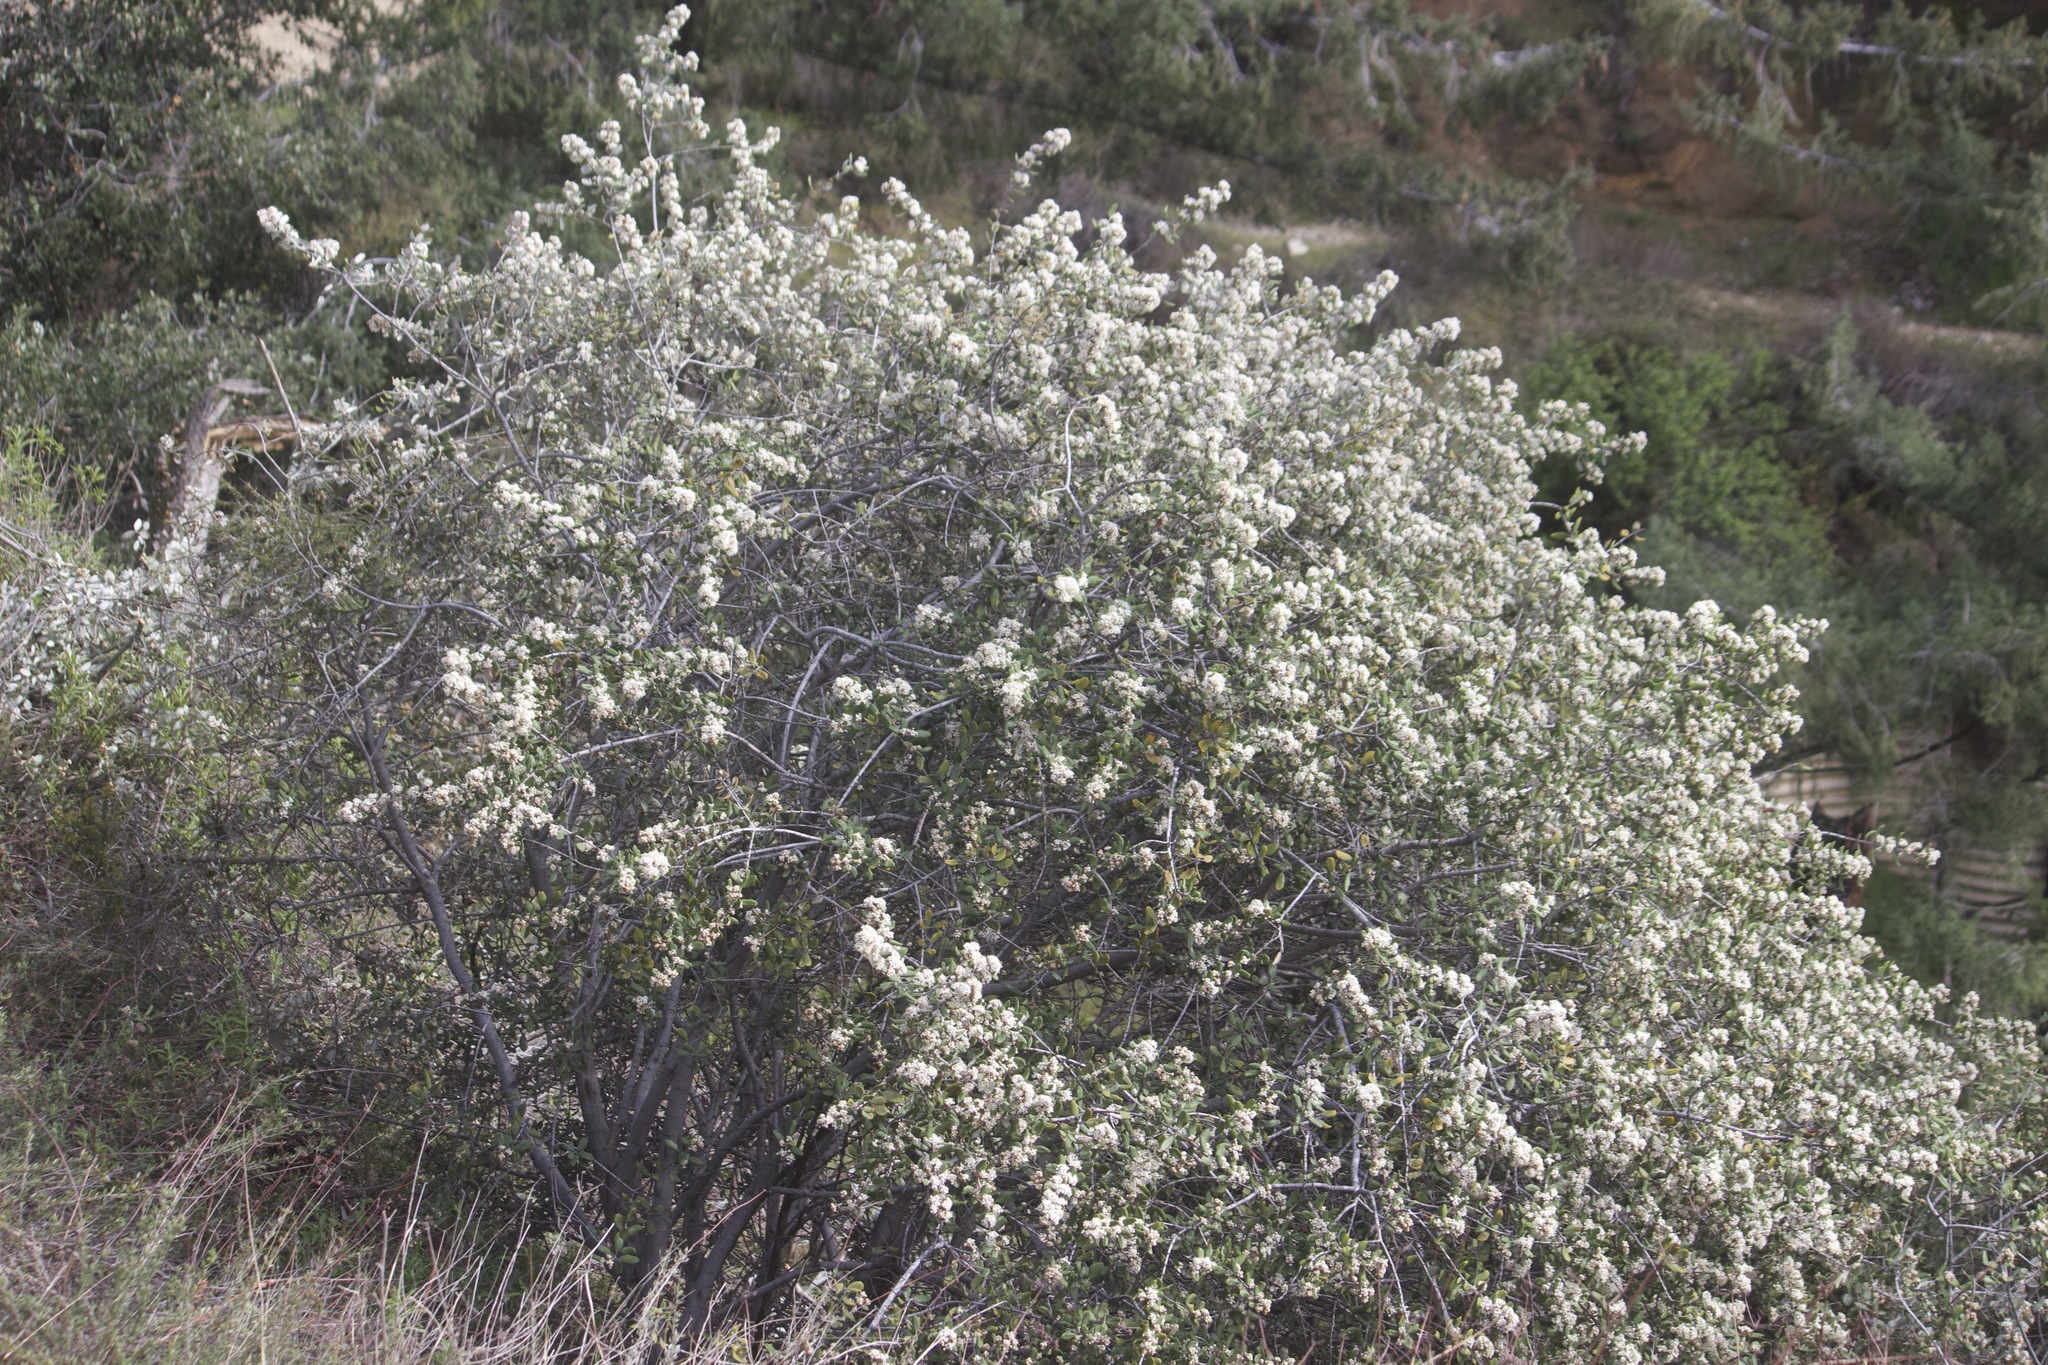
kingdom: Plantae
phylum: Tracheophyta
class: Magnoliopsida
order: Rosales
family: Rhamnaceae
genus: Ceanothus
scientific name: Ceanothus crassifolius
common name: Hoaryleaf ceanothus
